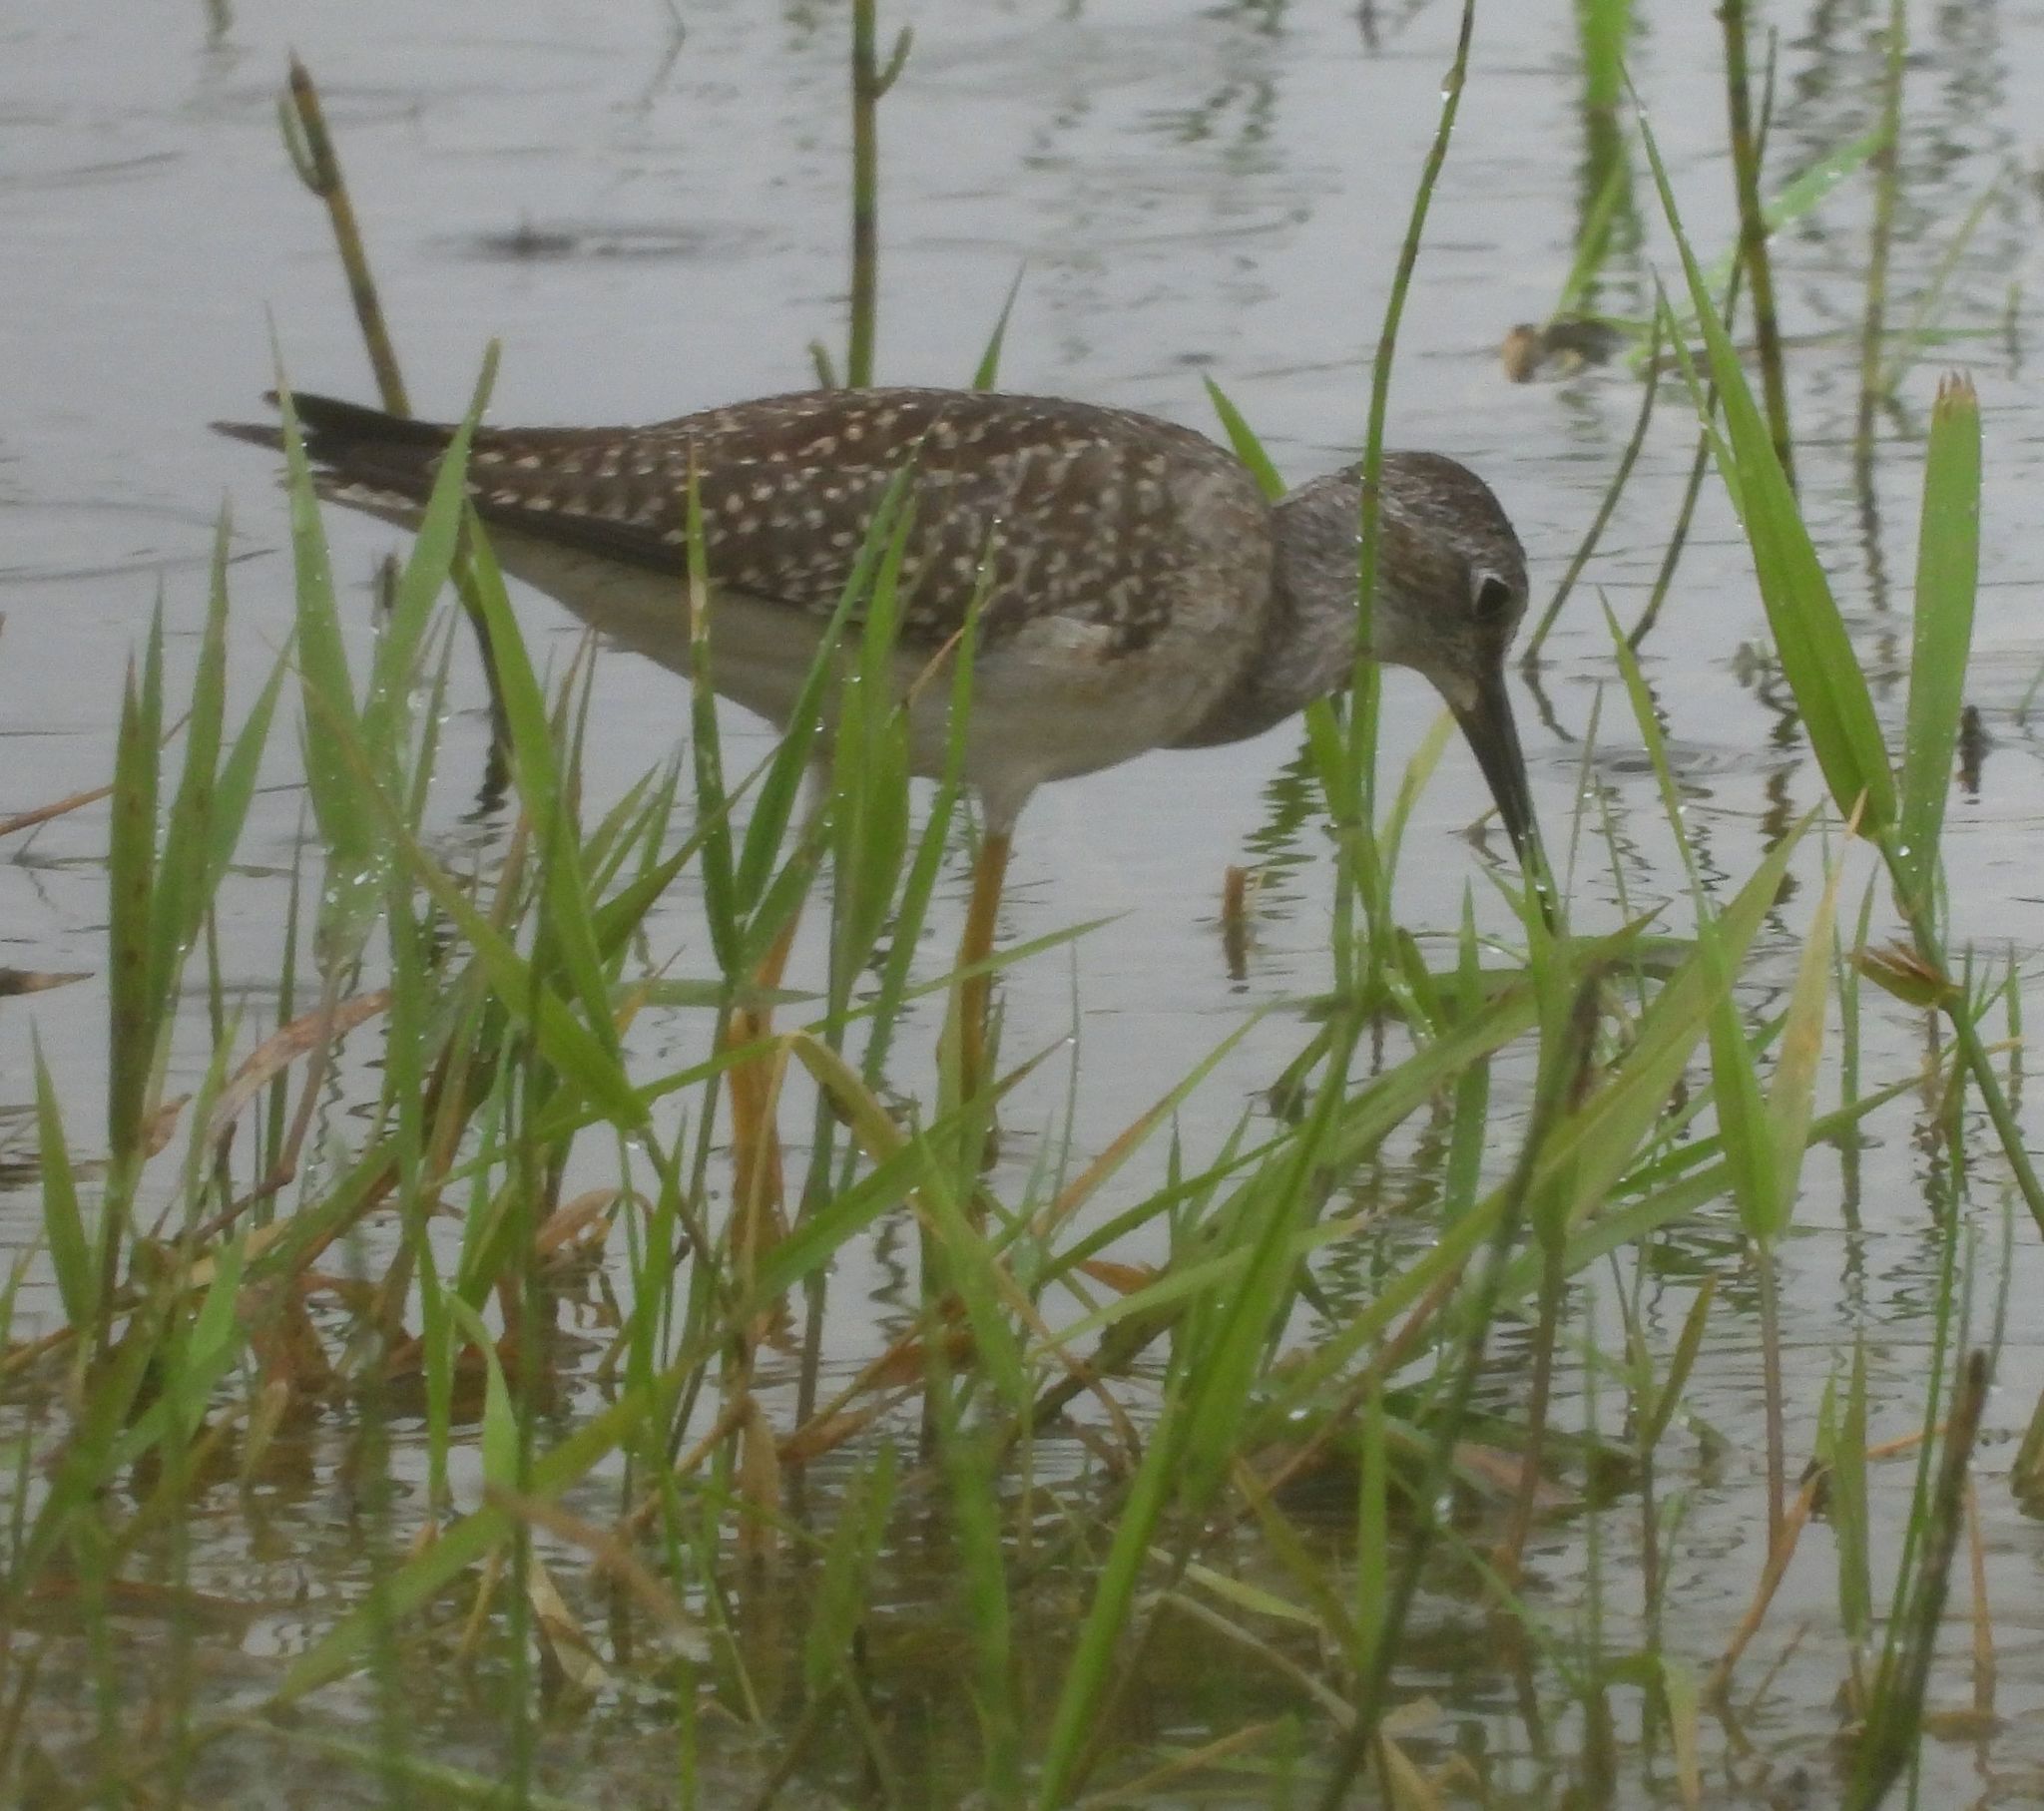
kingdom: Animalia
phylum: Chordata
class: Aves
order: Charadriiformes
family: Scolopacidae
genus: Tringa
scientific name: Tringa flavipes
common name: Lesser yellowlegs
